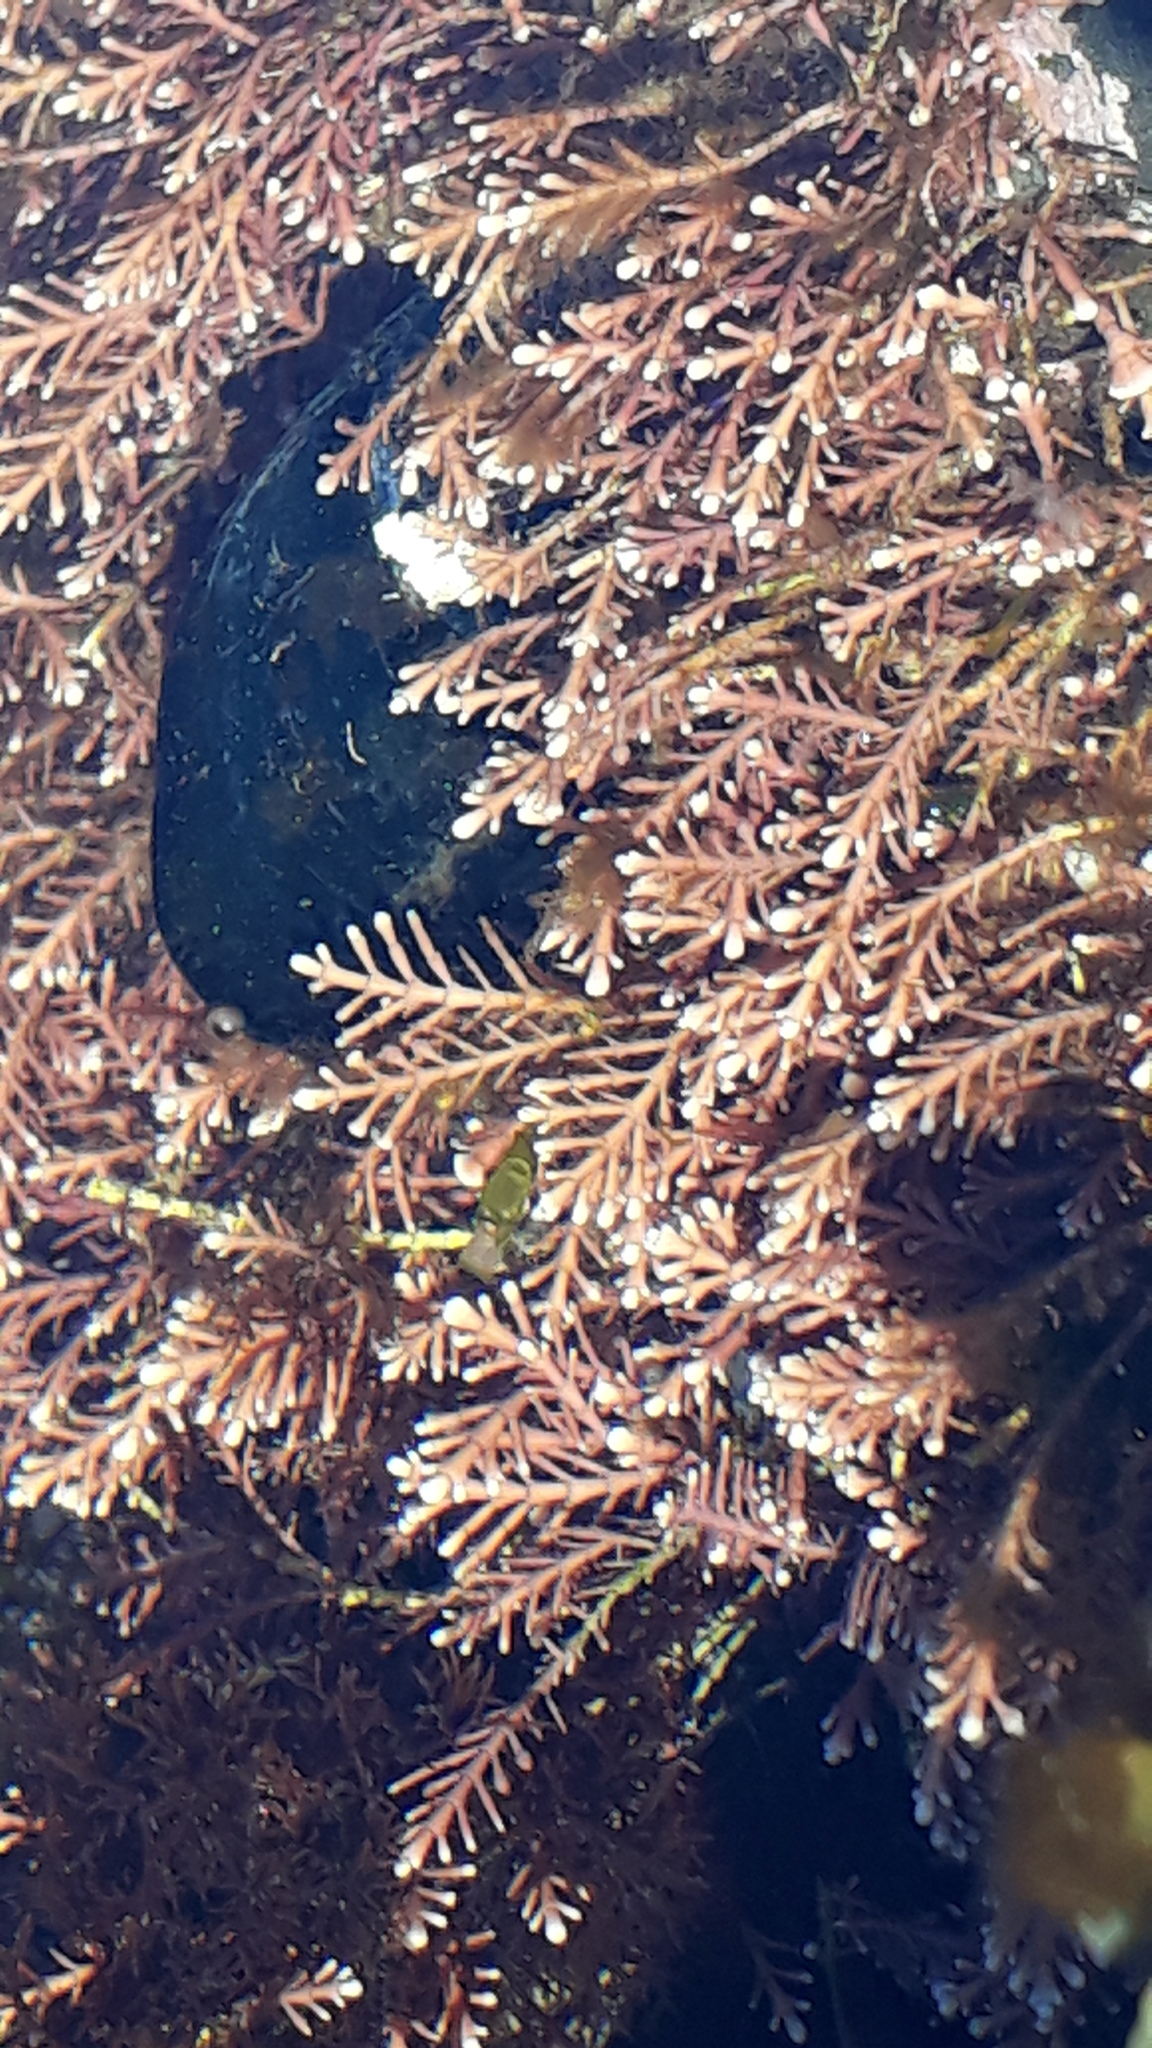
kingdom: Plantae
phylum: Rhodophyta
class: Florideophyceae
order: Corallinales
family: Corallinaceae
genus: Corallina
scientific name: Corallina officinalis
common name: Coral weed
